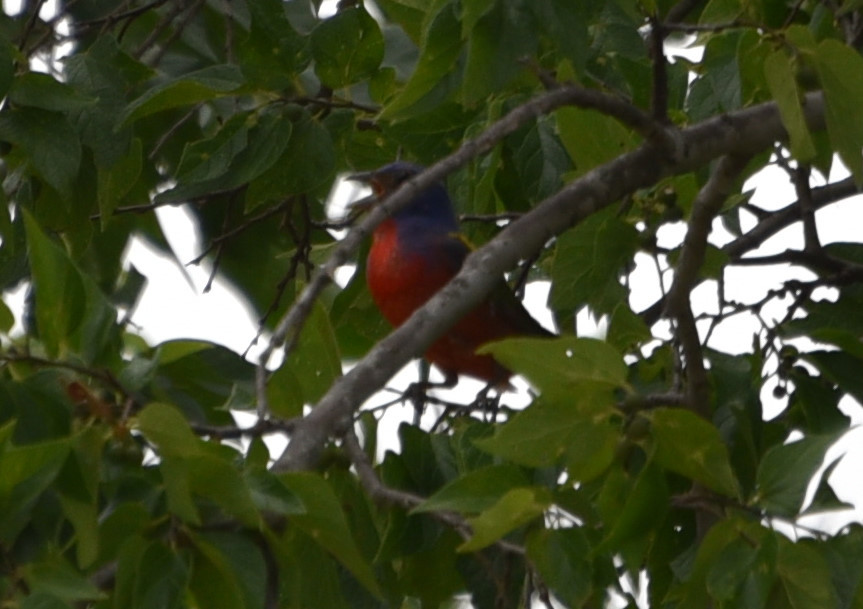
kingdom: Animalia
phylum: Chordata
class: Aves
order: Passeriformes
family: Cardinalidae
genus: Passerina
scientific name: Passerina ciris
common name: Painted bunting
